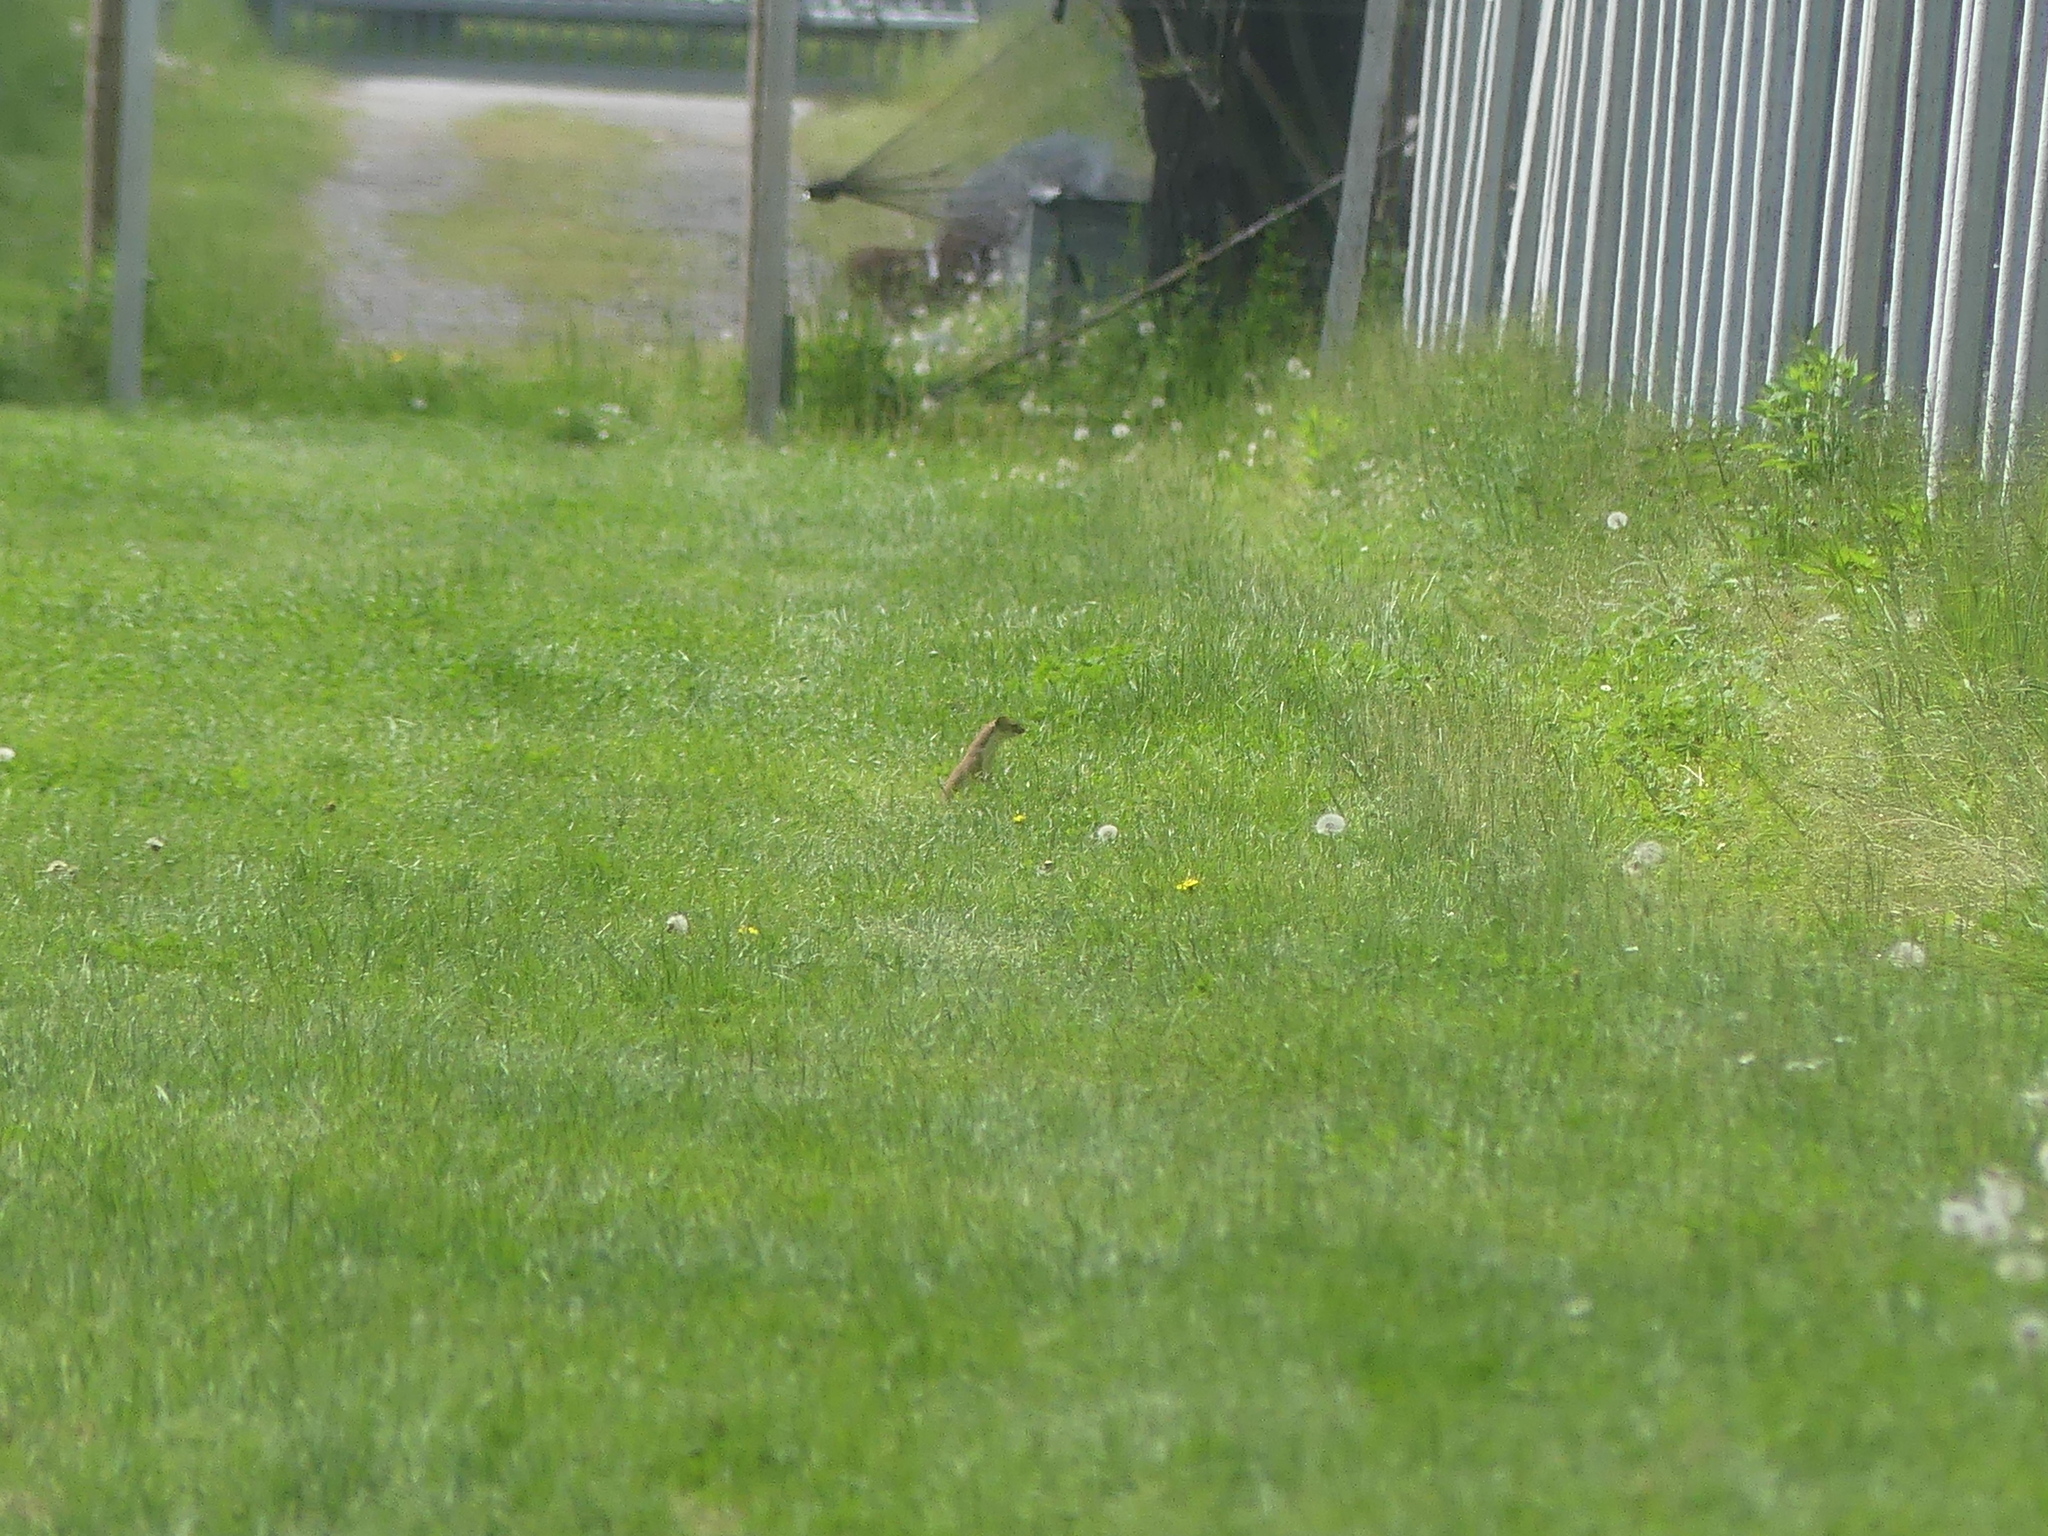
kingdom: Animalia
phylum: Chordata
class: Mammalia
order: Carnivora
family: Mustelidae
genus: Mustela
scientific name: Mustela erminea
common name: Stoat
